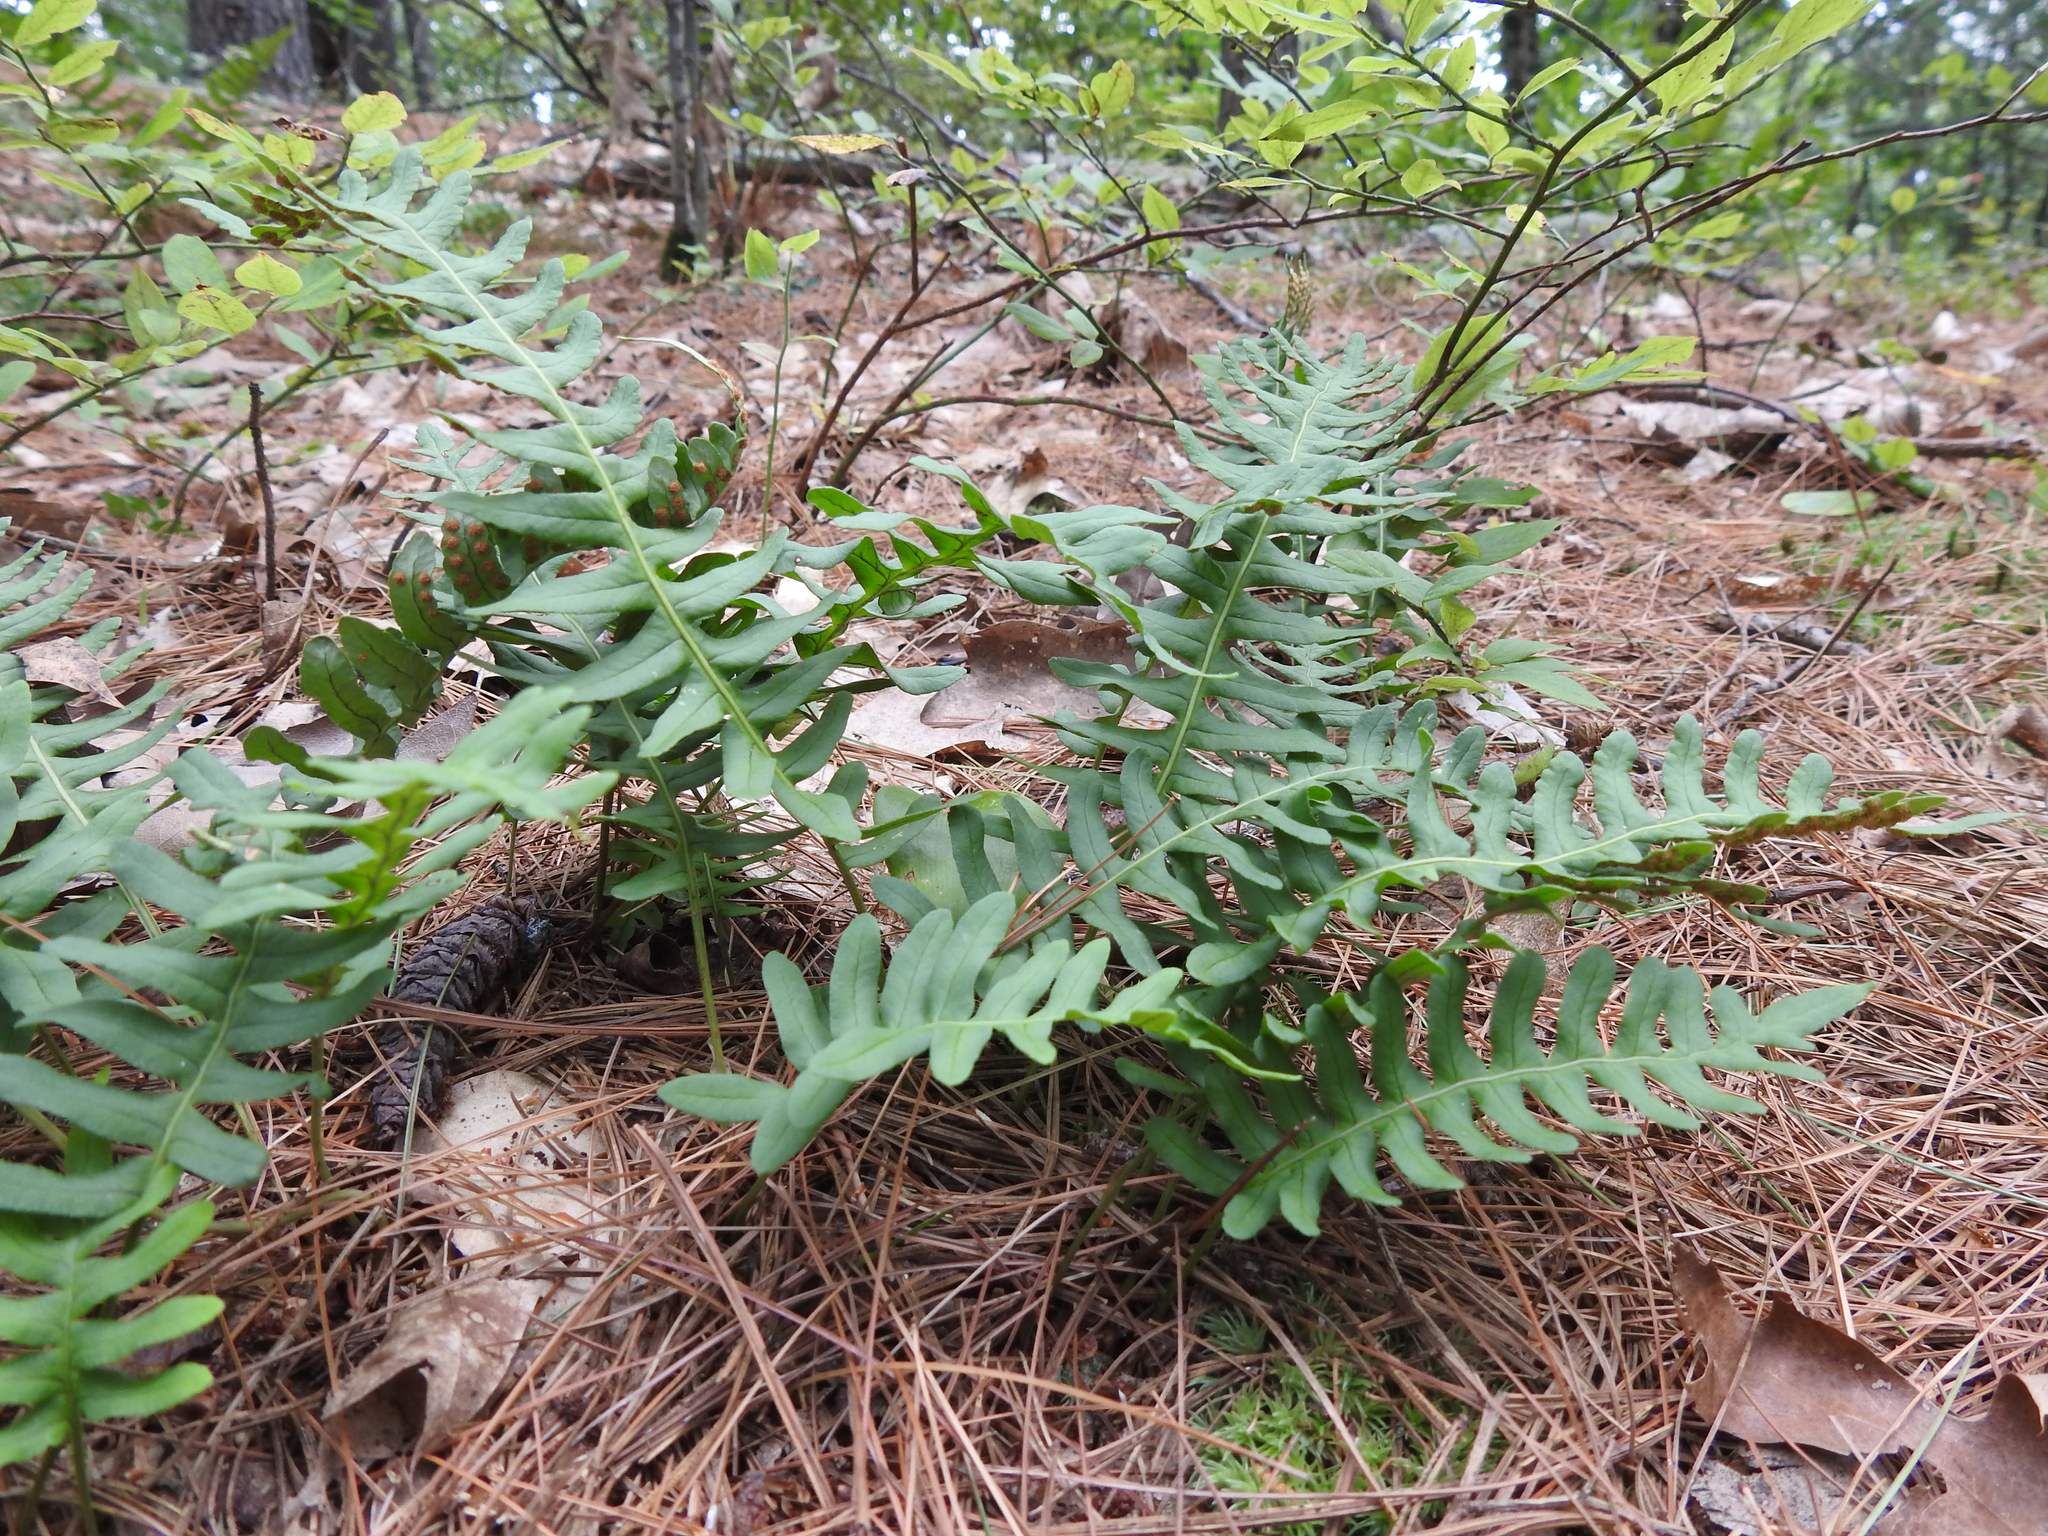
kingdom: Plantae
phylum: Tracheophyta
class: Polypodiopsida
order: Polypodiales
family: Polypodiaceae
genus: Polypodium
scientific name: Polypodium virginianum
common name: American wall fern
